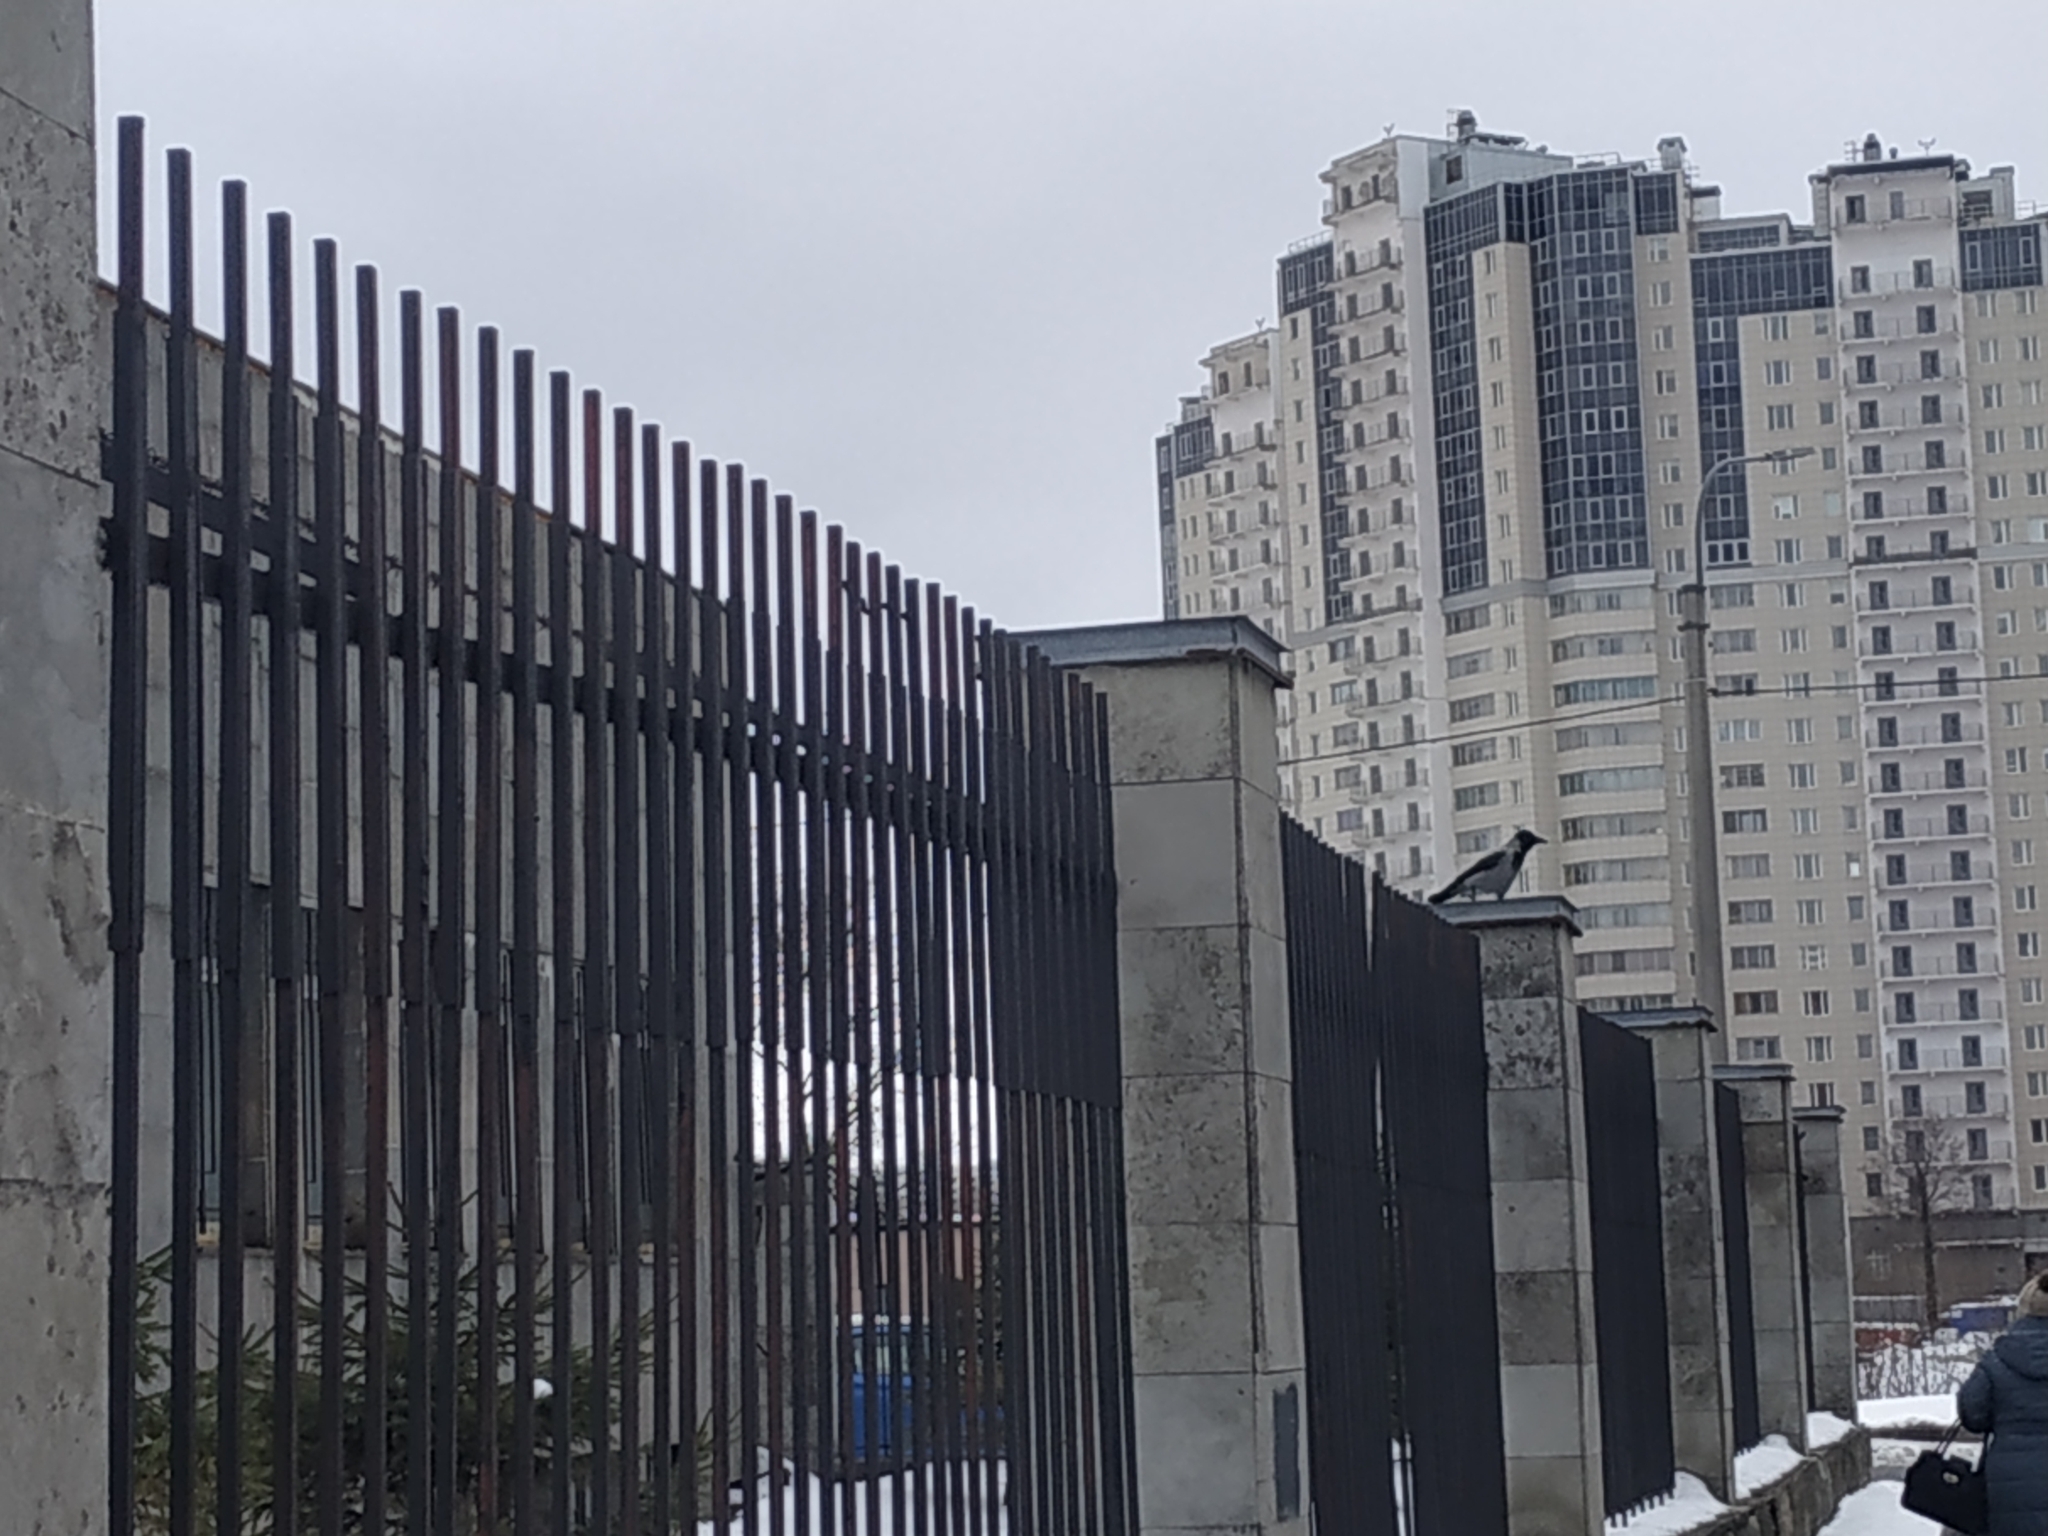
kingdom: Animalia
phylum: Chordata
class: Aves
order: Passeriformes
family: Corvidae
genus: Corvus
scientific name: Corvus cornix
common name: Hooded crow
